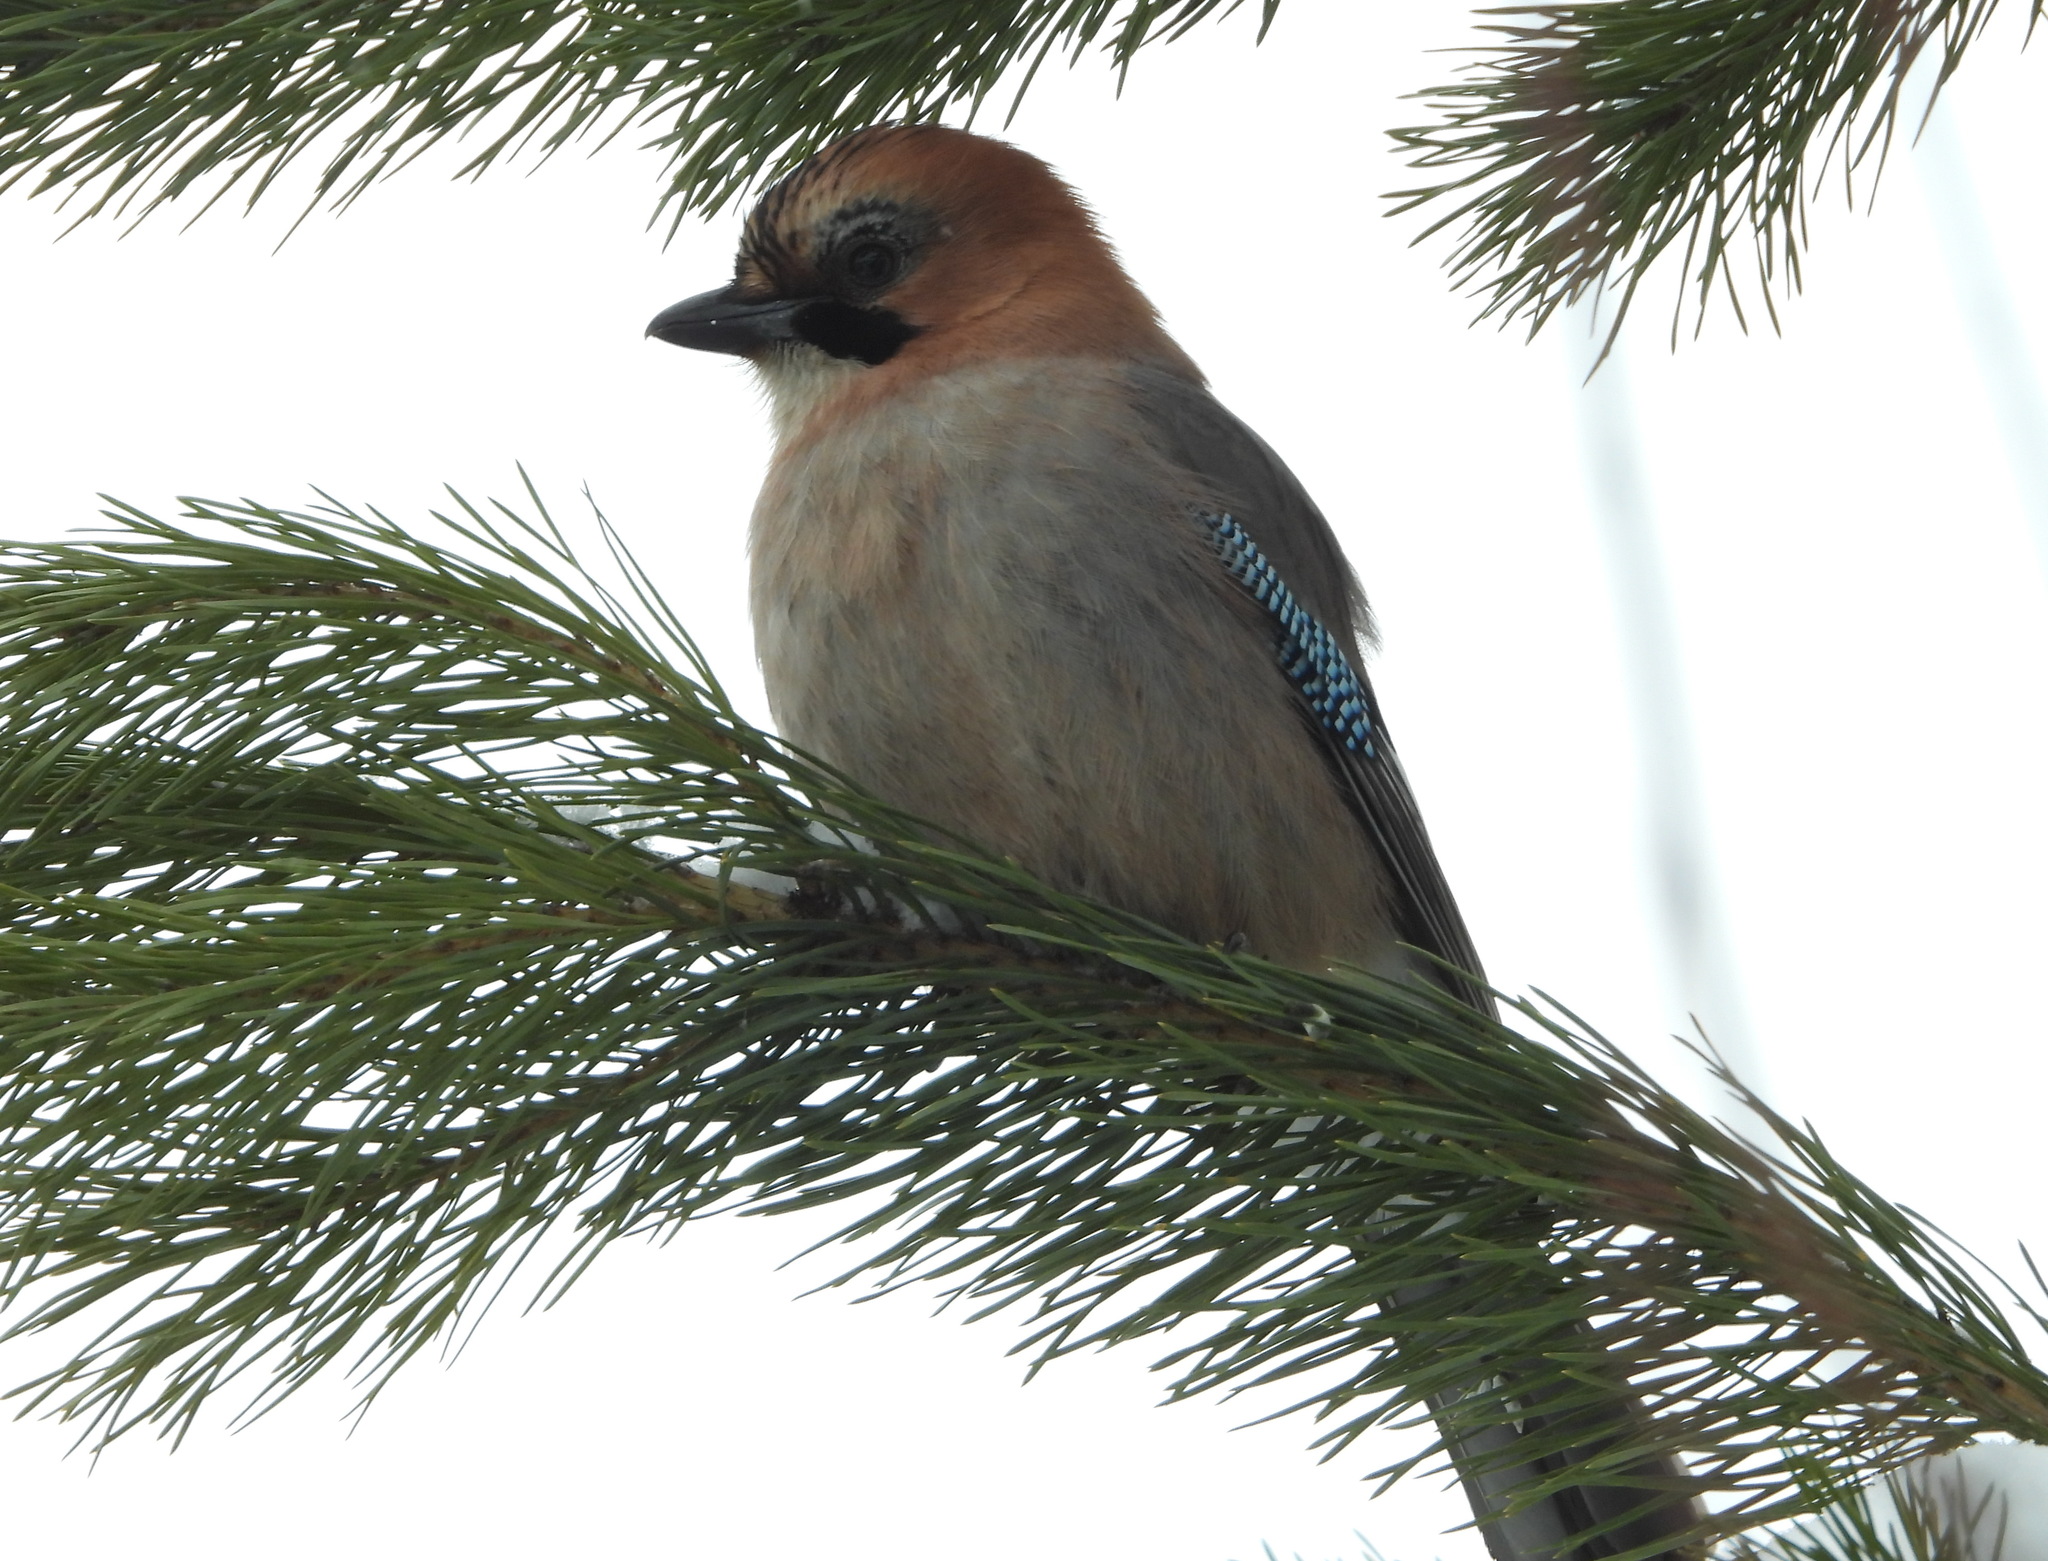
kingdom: Animalia
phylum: Chordata
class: Aves
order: Passeriformes
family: Corvidae
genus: Garrulus
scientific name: Garrulus glandarius
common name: Eurasian jay
